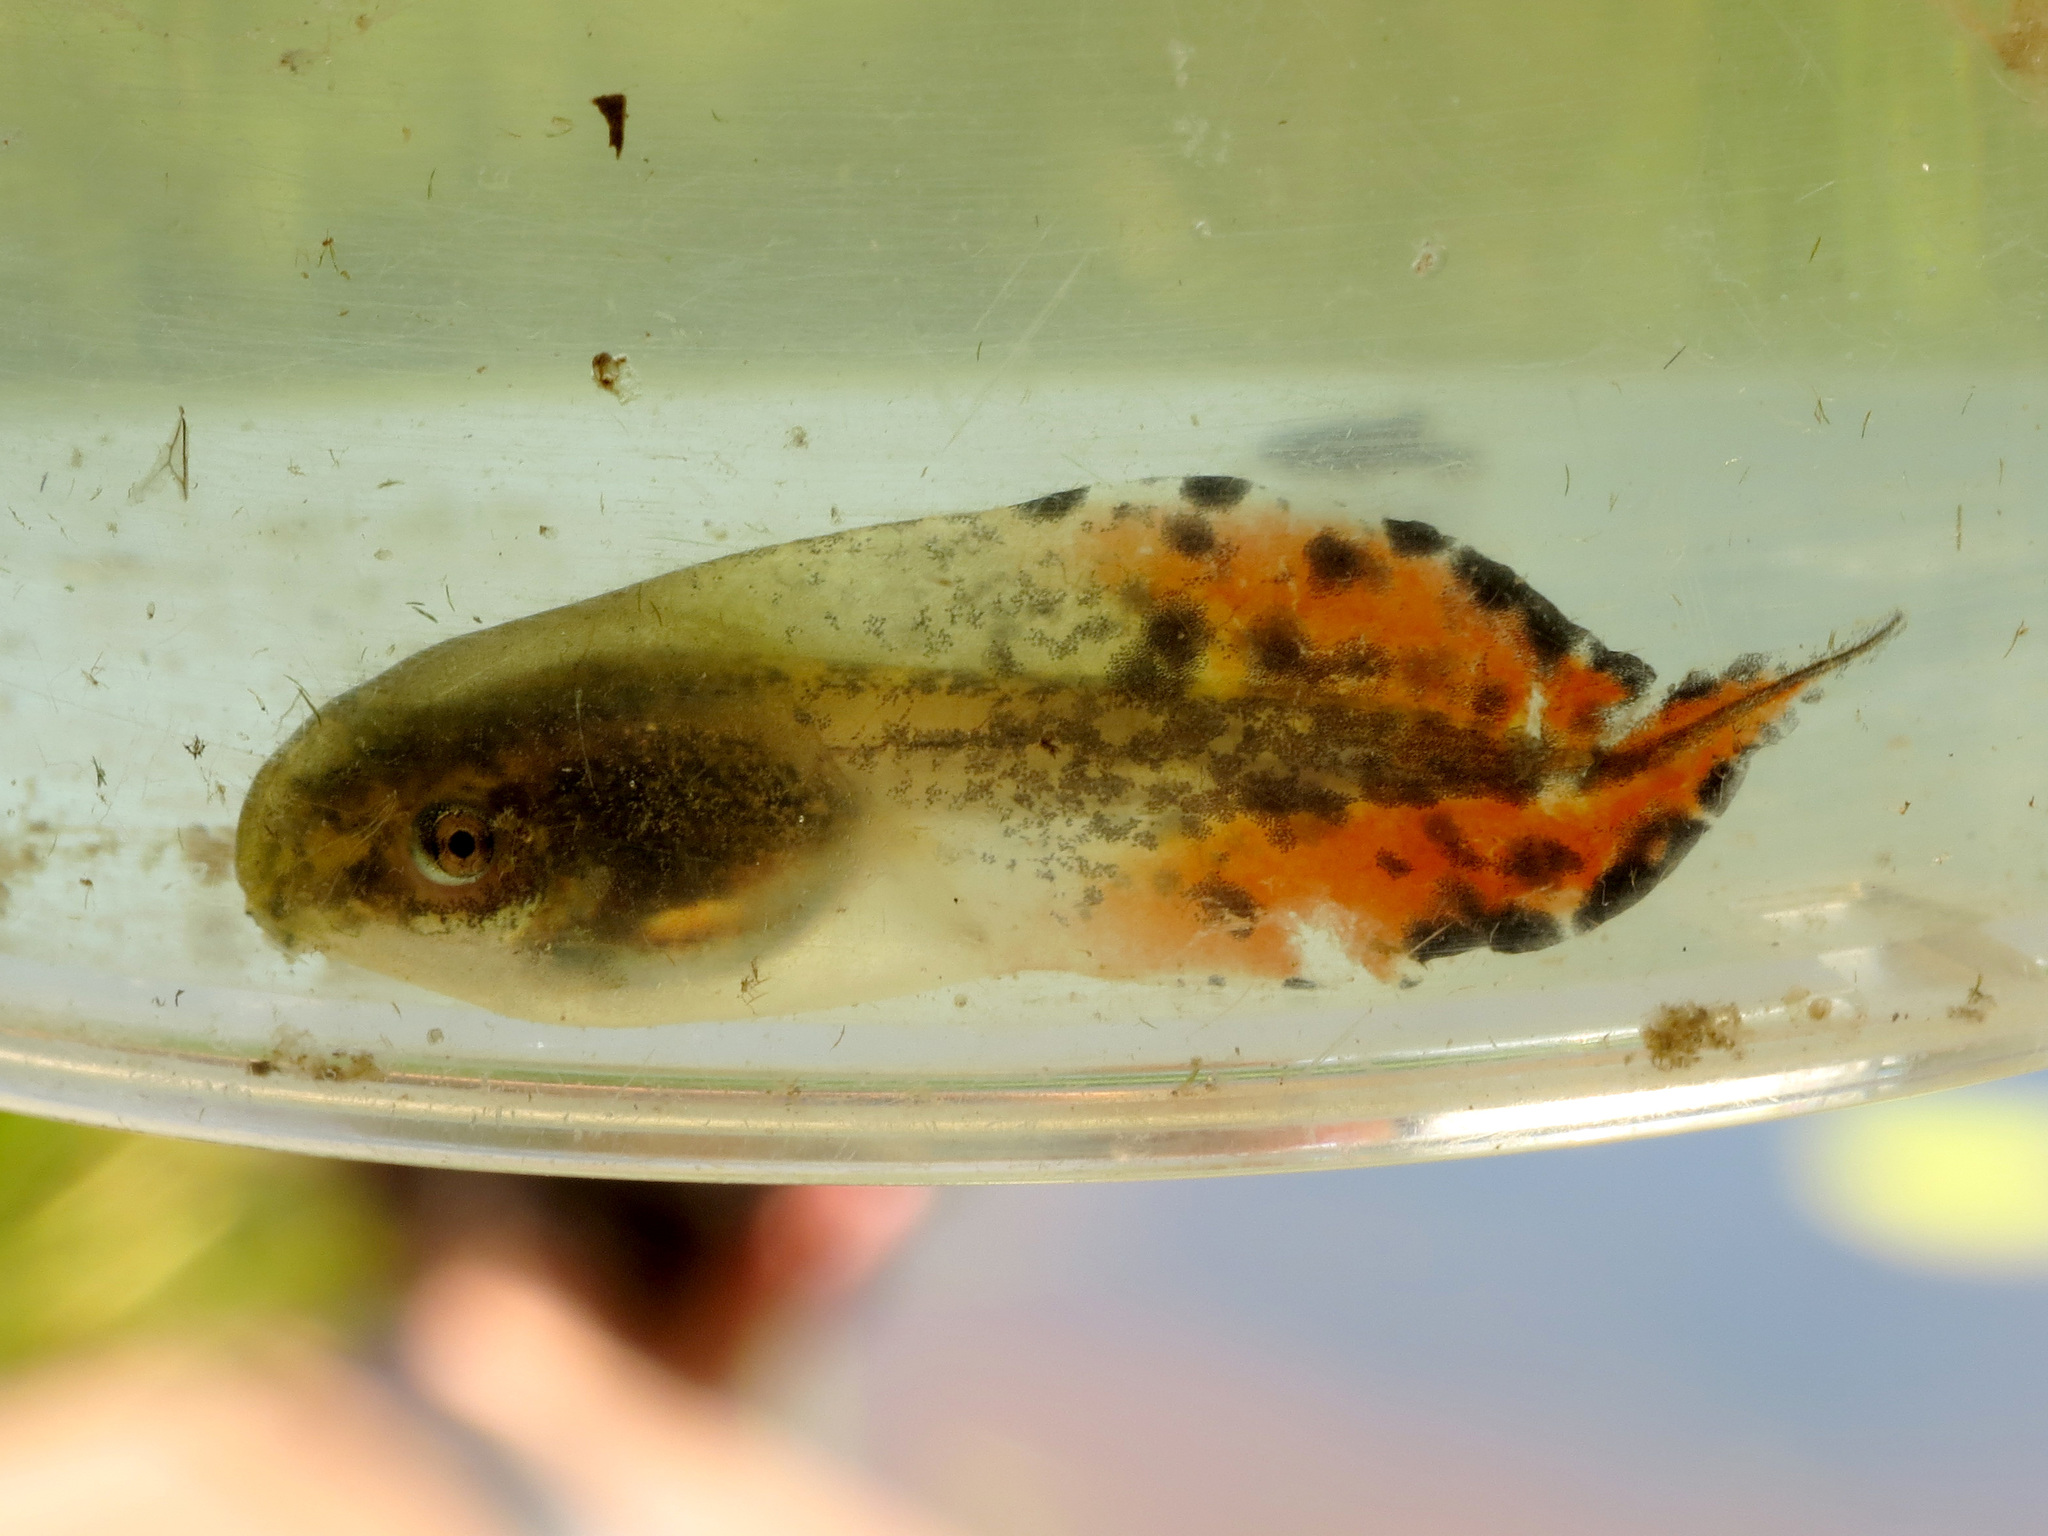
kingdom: Animalia
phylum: Chordata
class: Amphibia
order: Anura
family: Hylidae
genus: Hyla
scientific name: Hyla
